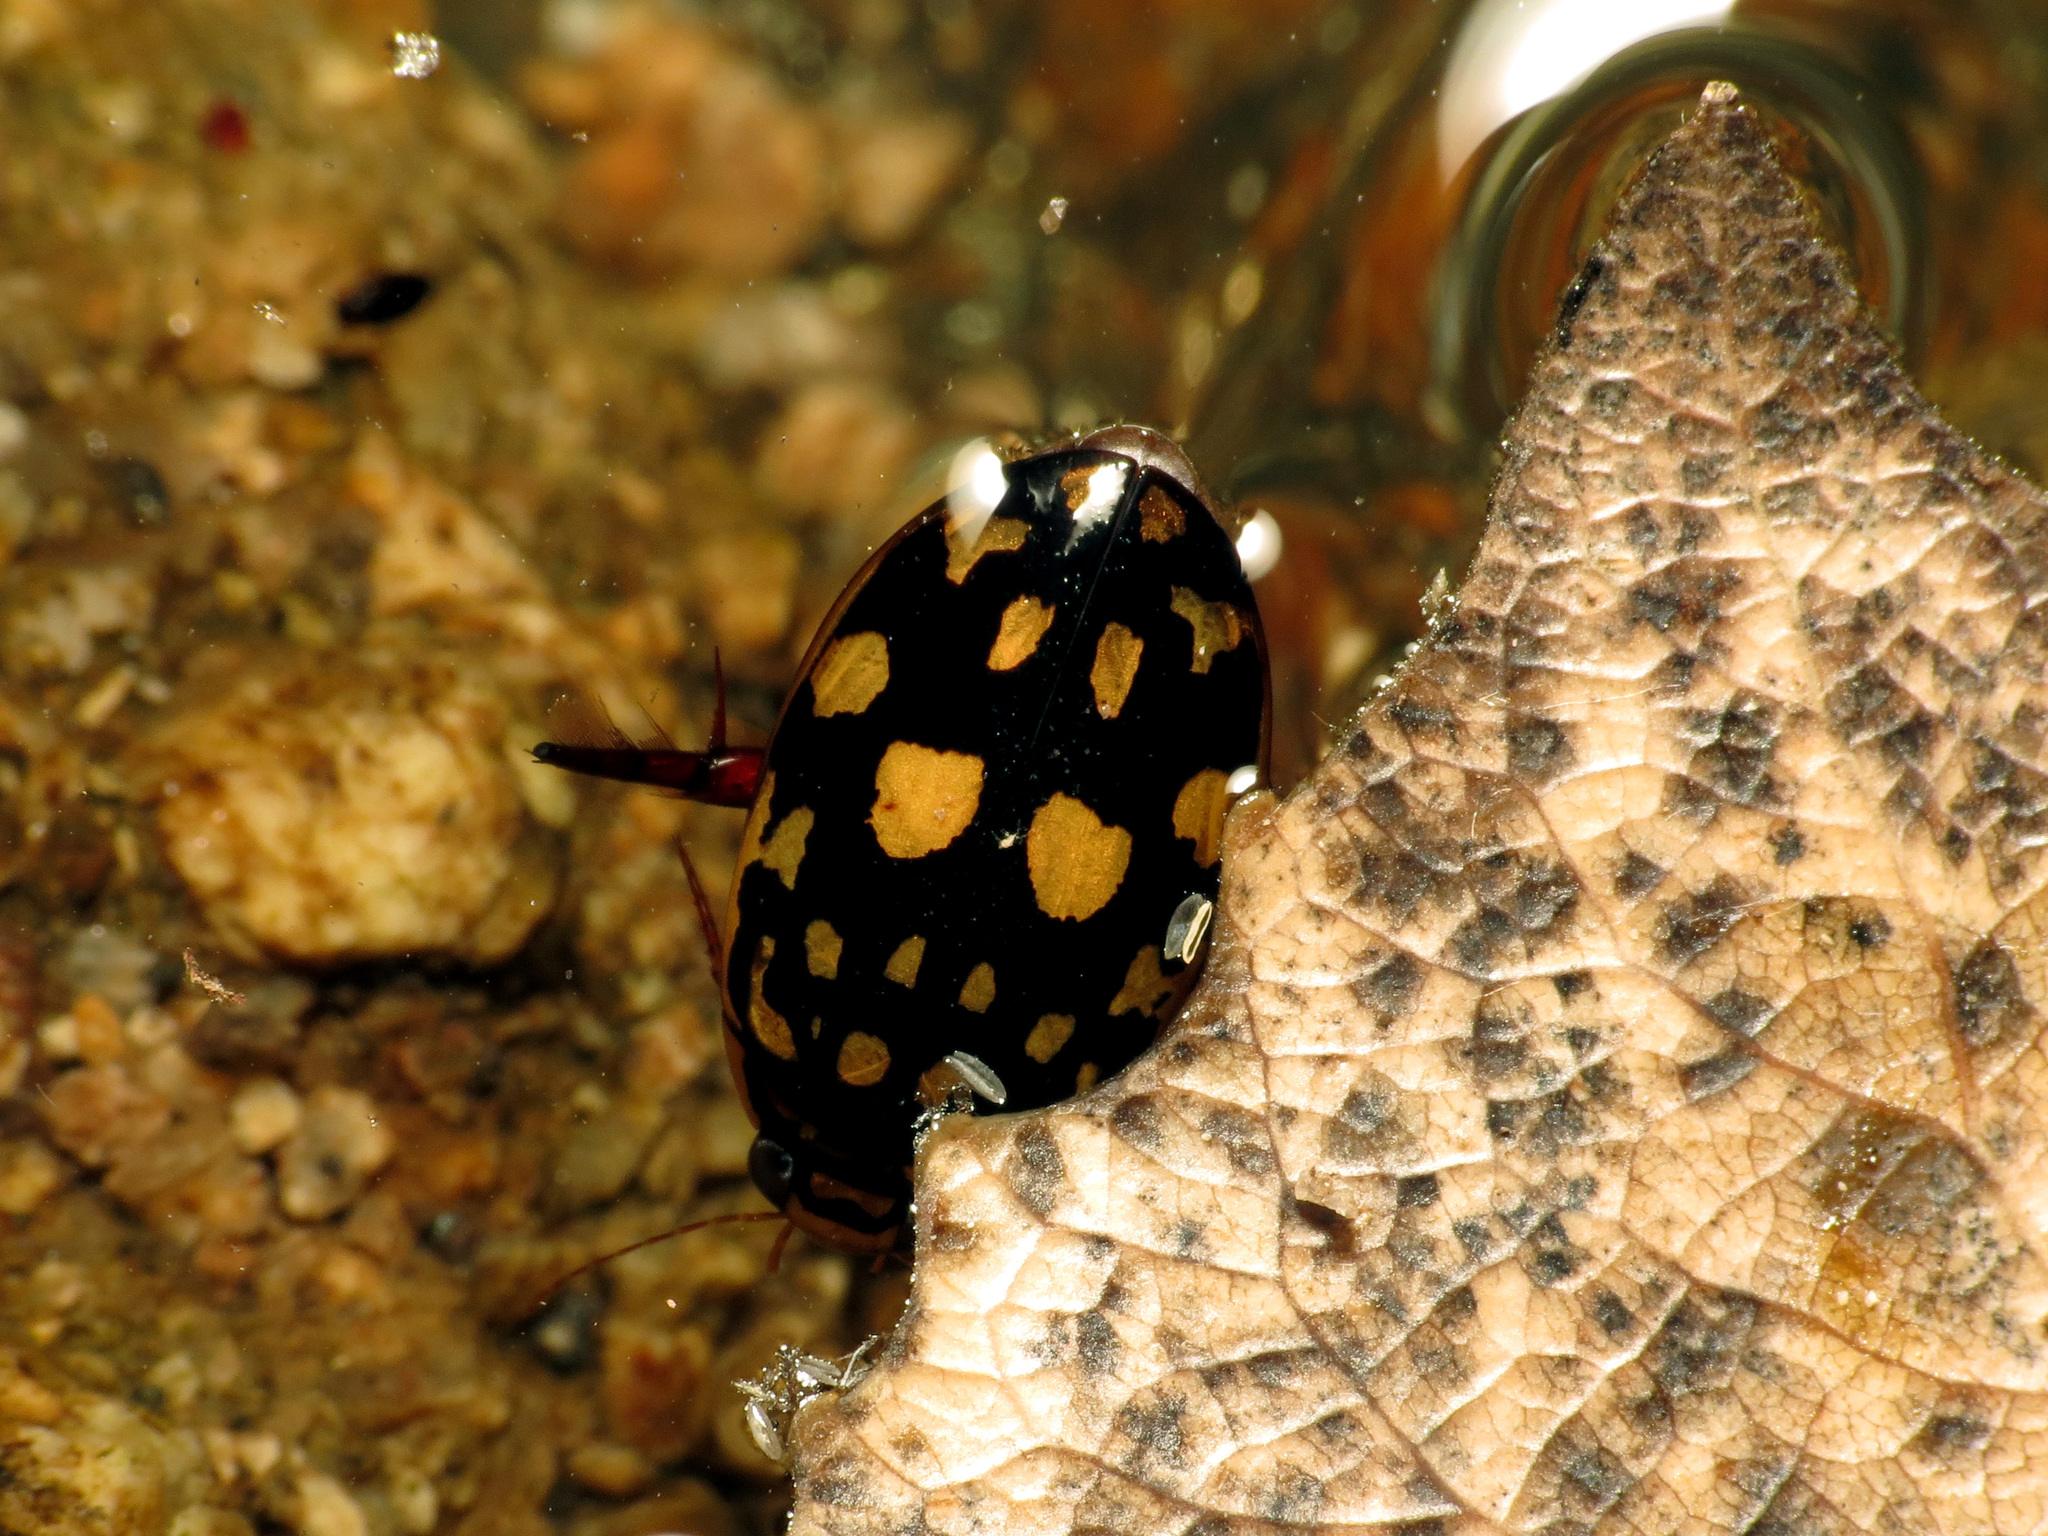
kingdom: Animalia
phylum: Arthropoda
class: Insecta
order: Coleoptera
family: Dytiscidae
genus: Thermonectus
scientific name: Thermonectus marmoratus
